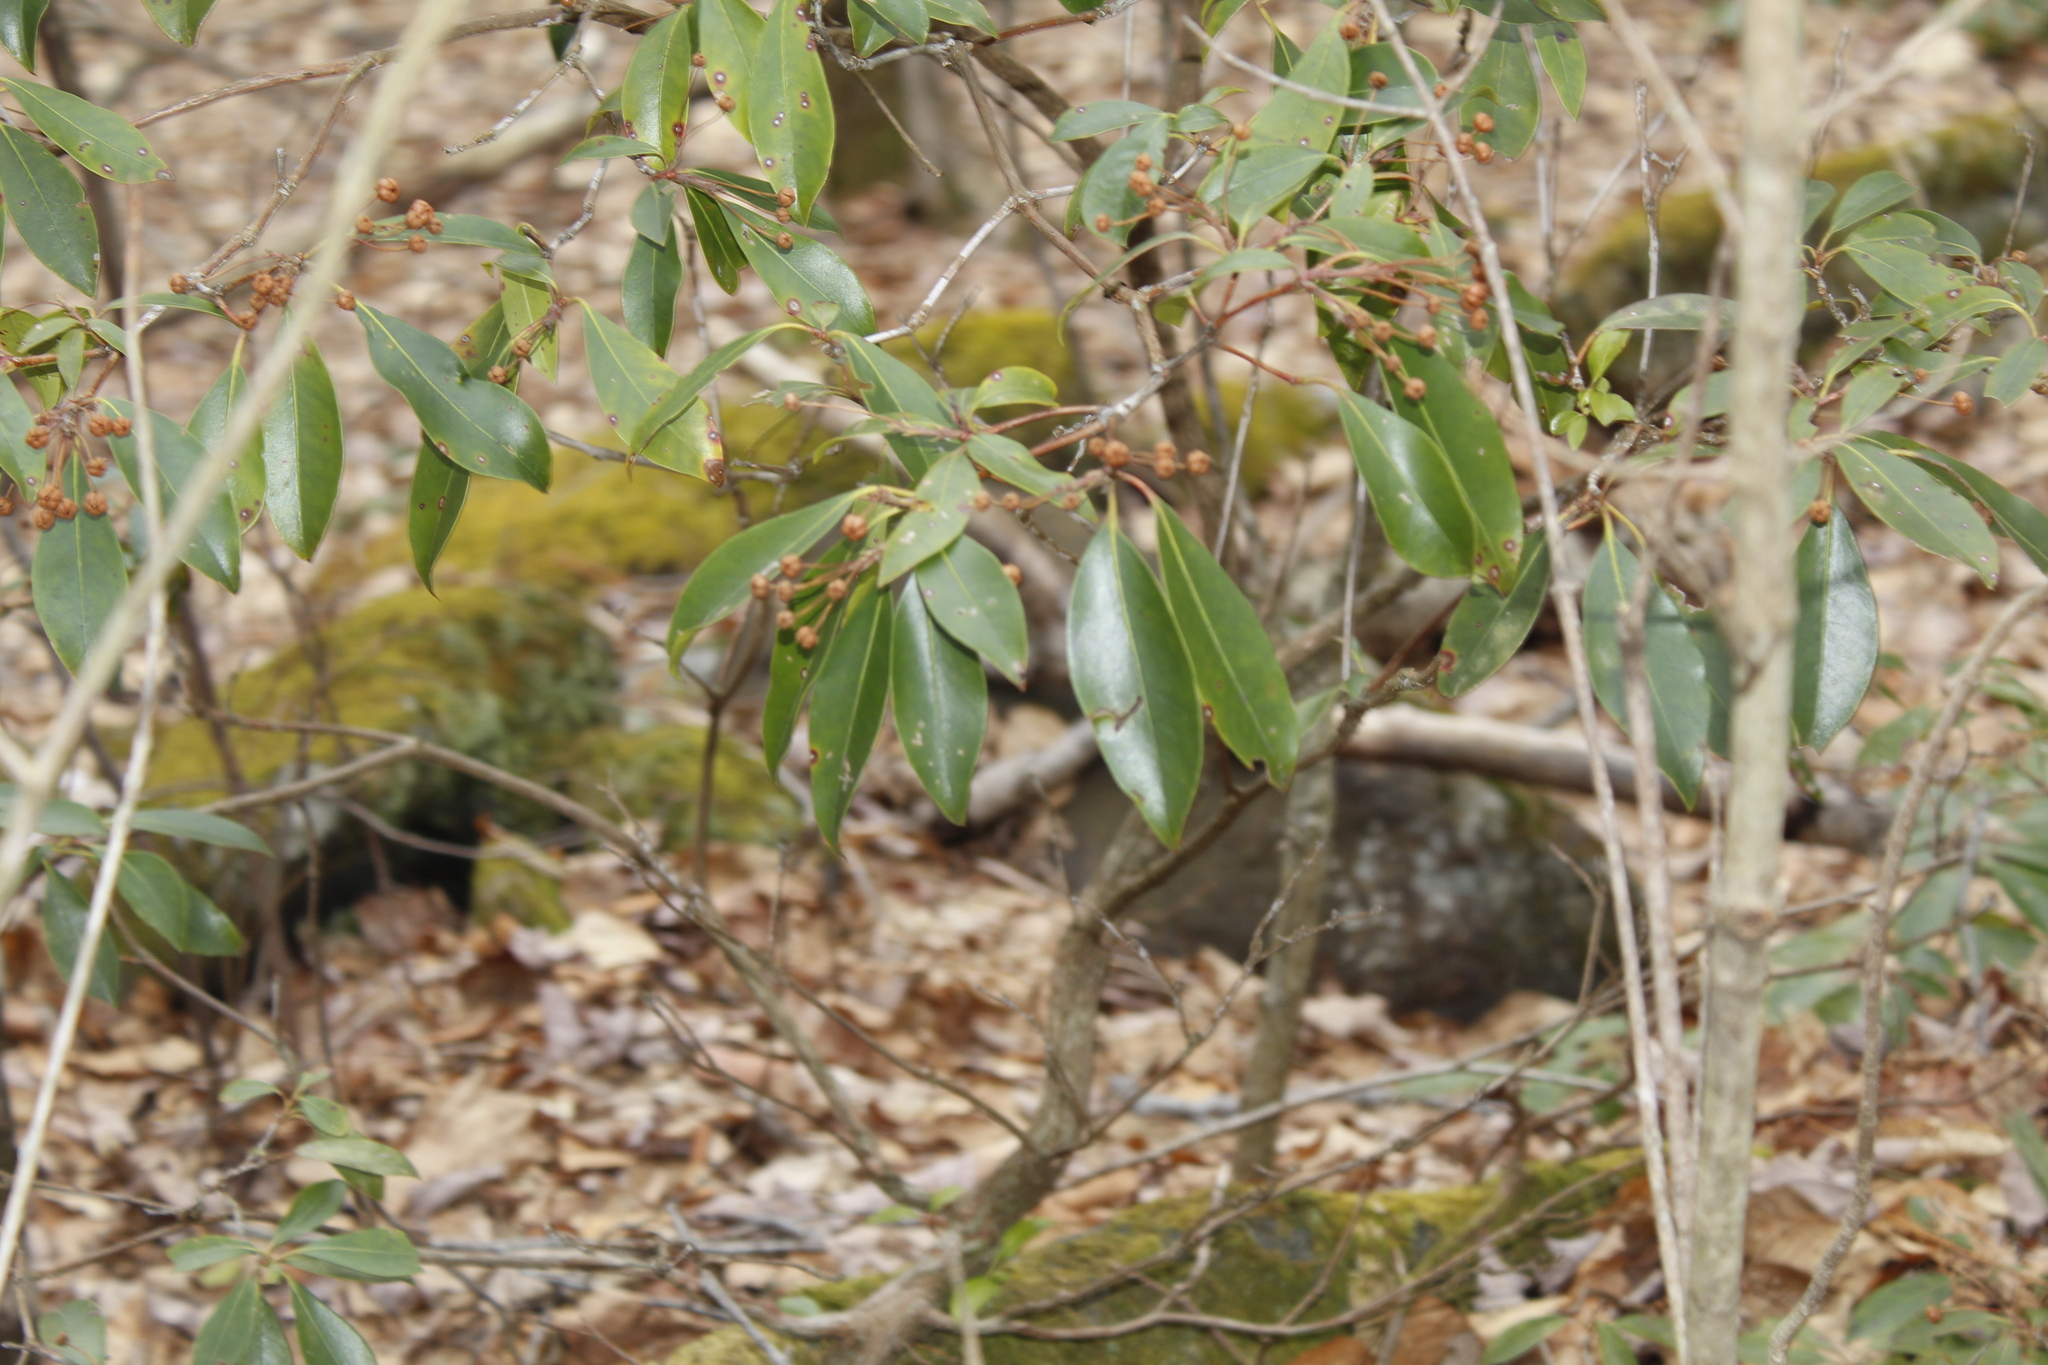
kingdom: Plantae
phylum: Tracheophyta
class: Magnoliopsida
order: Ericales
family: Ericaceae
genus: Kalmia
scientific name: Kalmia latifolia
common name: Mountain-laurel
